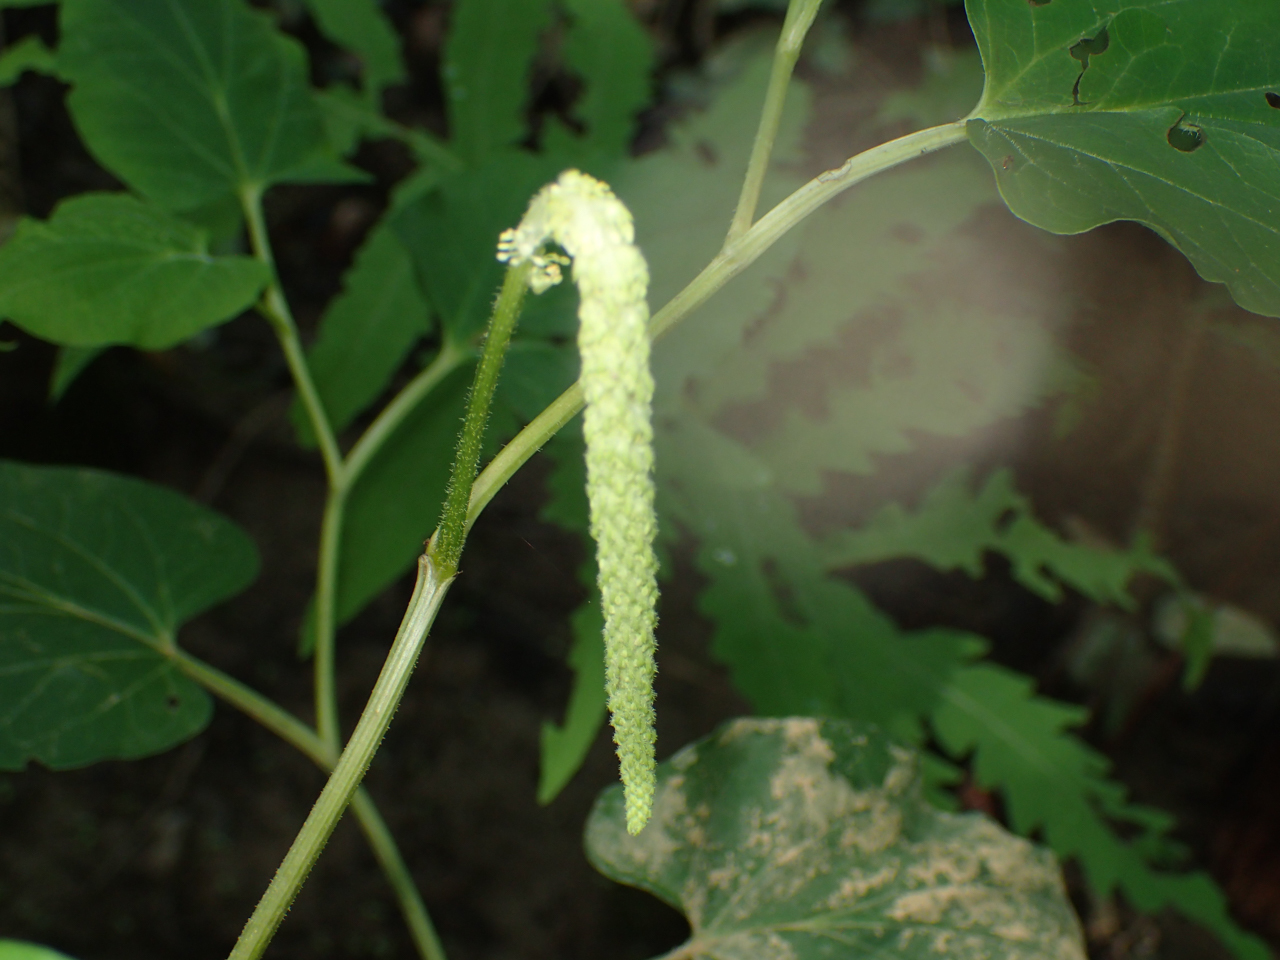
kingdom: Plantae
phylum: Tracheophyta
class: Magnoliopsida
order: Piperales
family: Saururaceae
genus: Saururus
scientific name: Saururus cernuus
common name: Lizard's-tail
